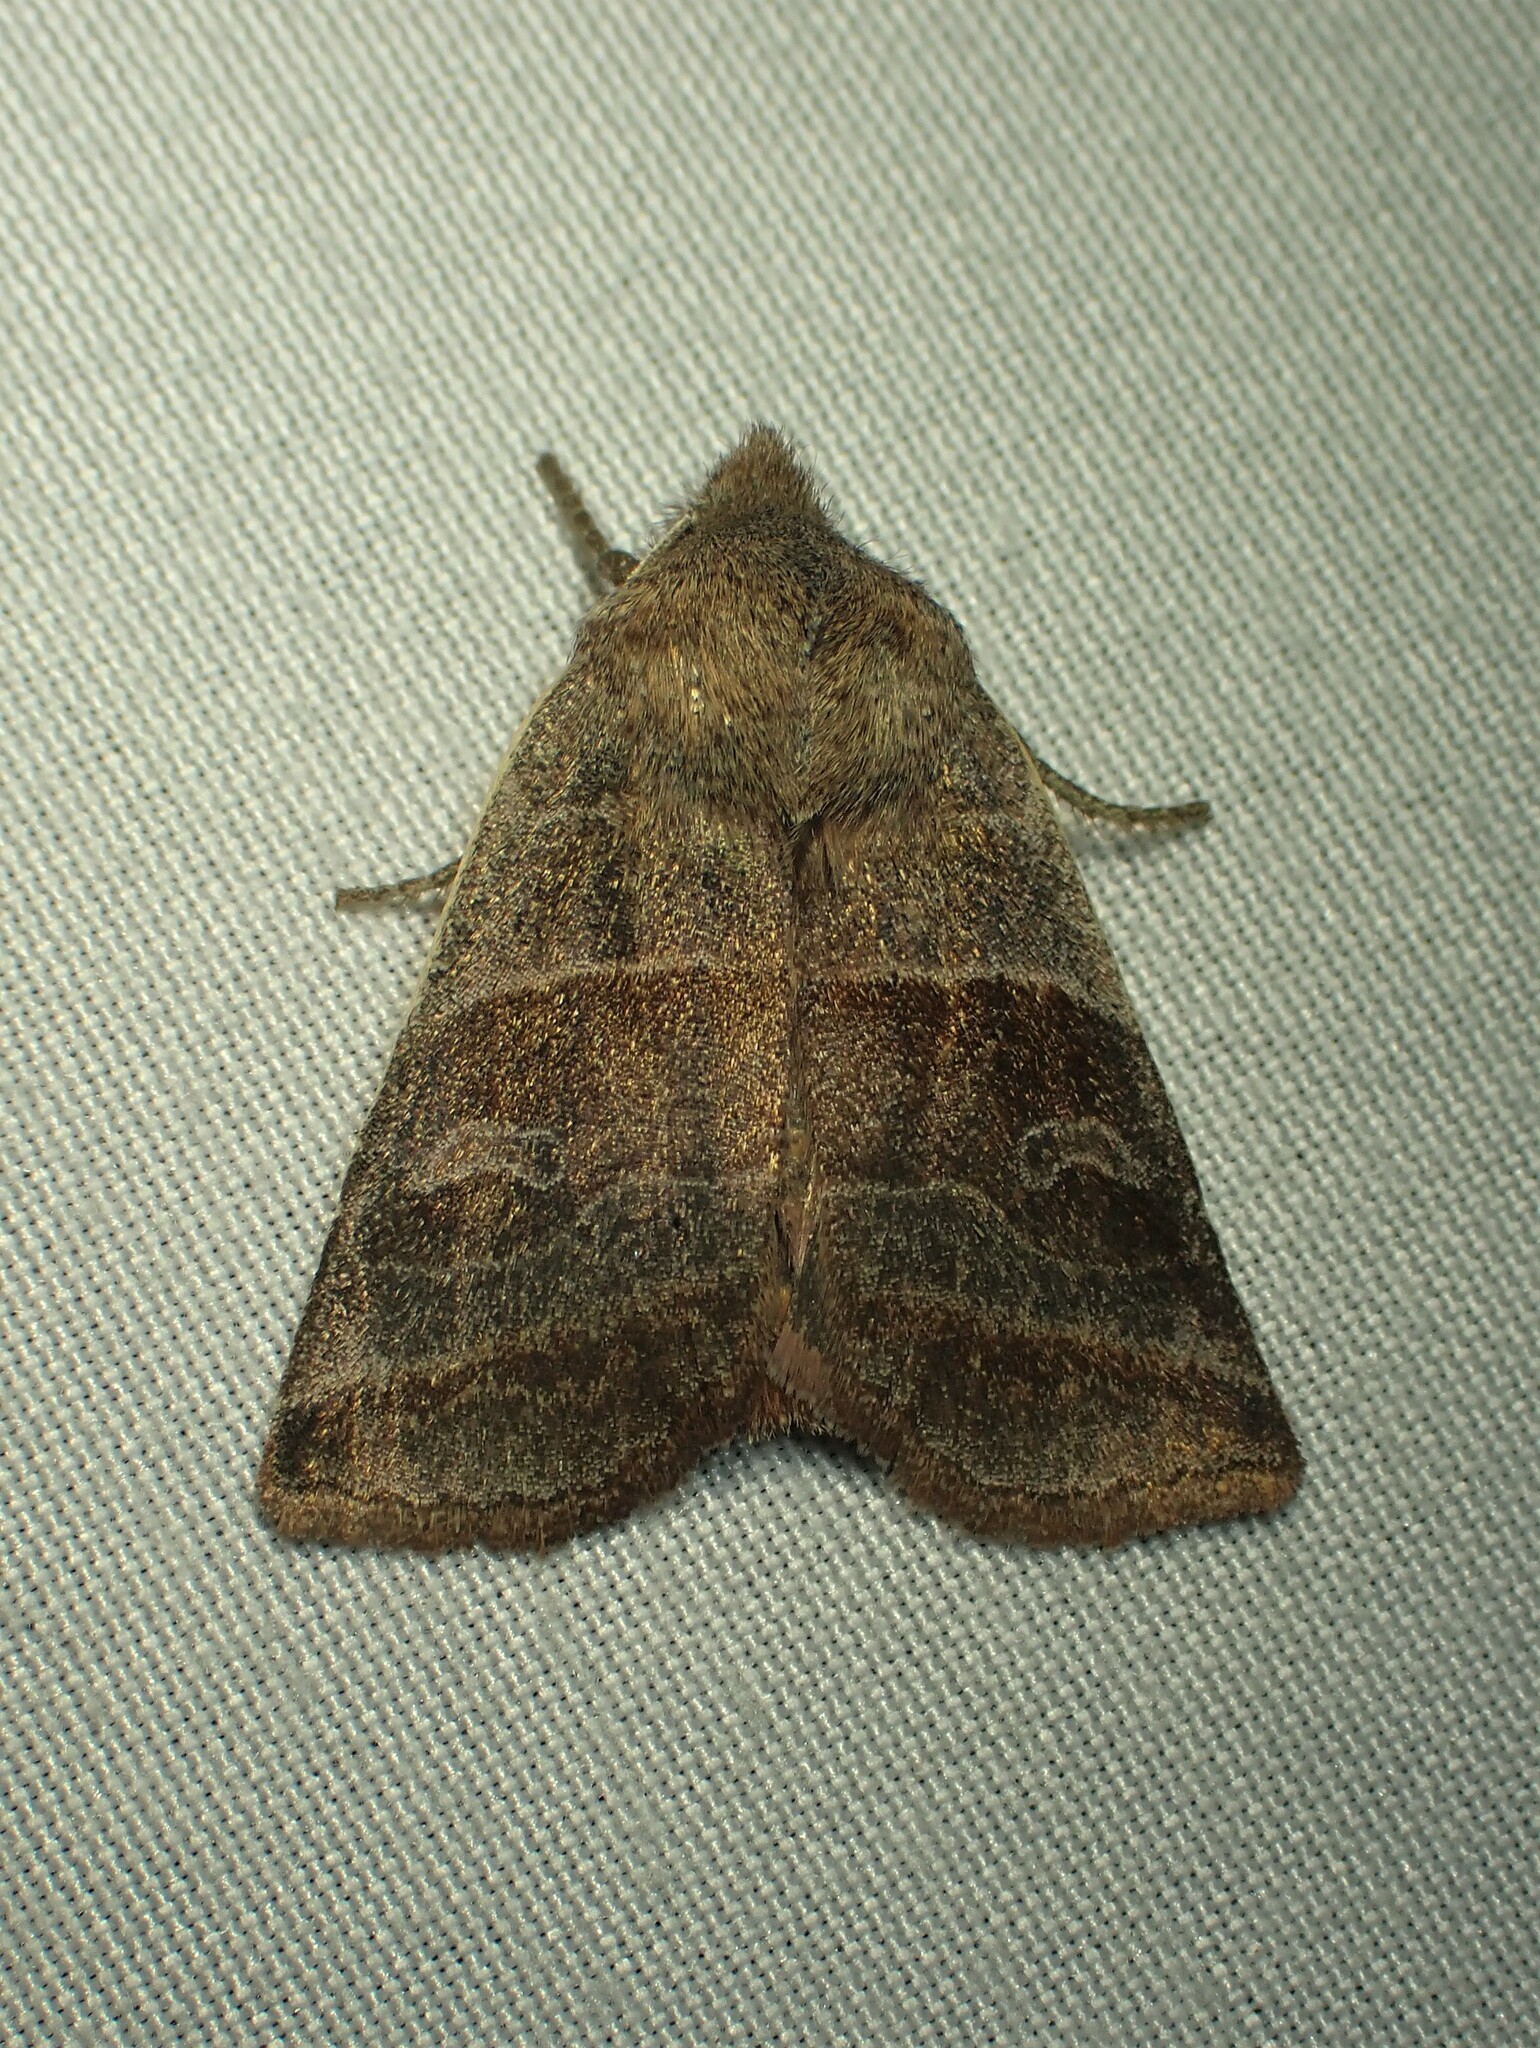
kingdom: Animalia
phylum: Arthropoda
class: Insecta
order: Lepidoptera
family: Noctuidae
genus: Eupsilia
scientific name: Eupsilia devia
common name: Lost sallow
